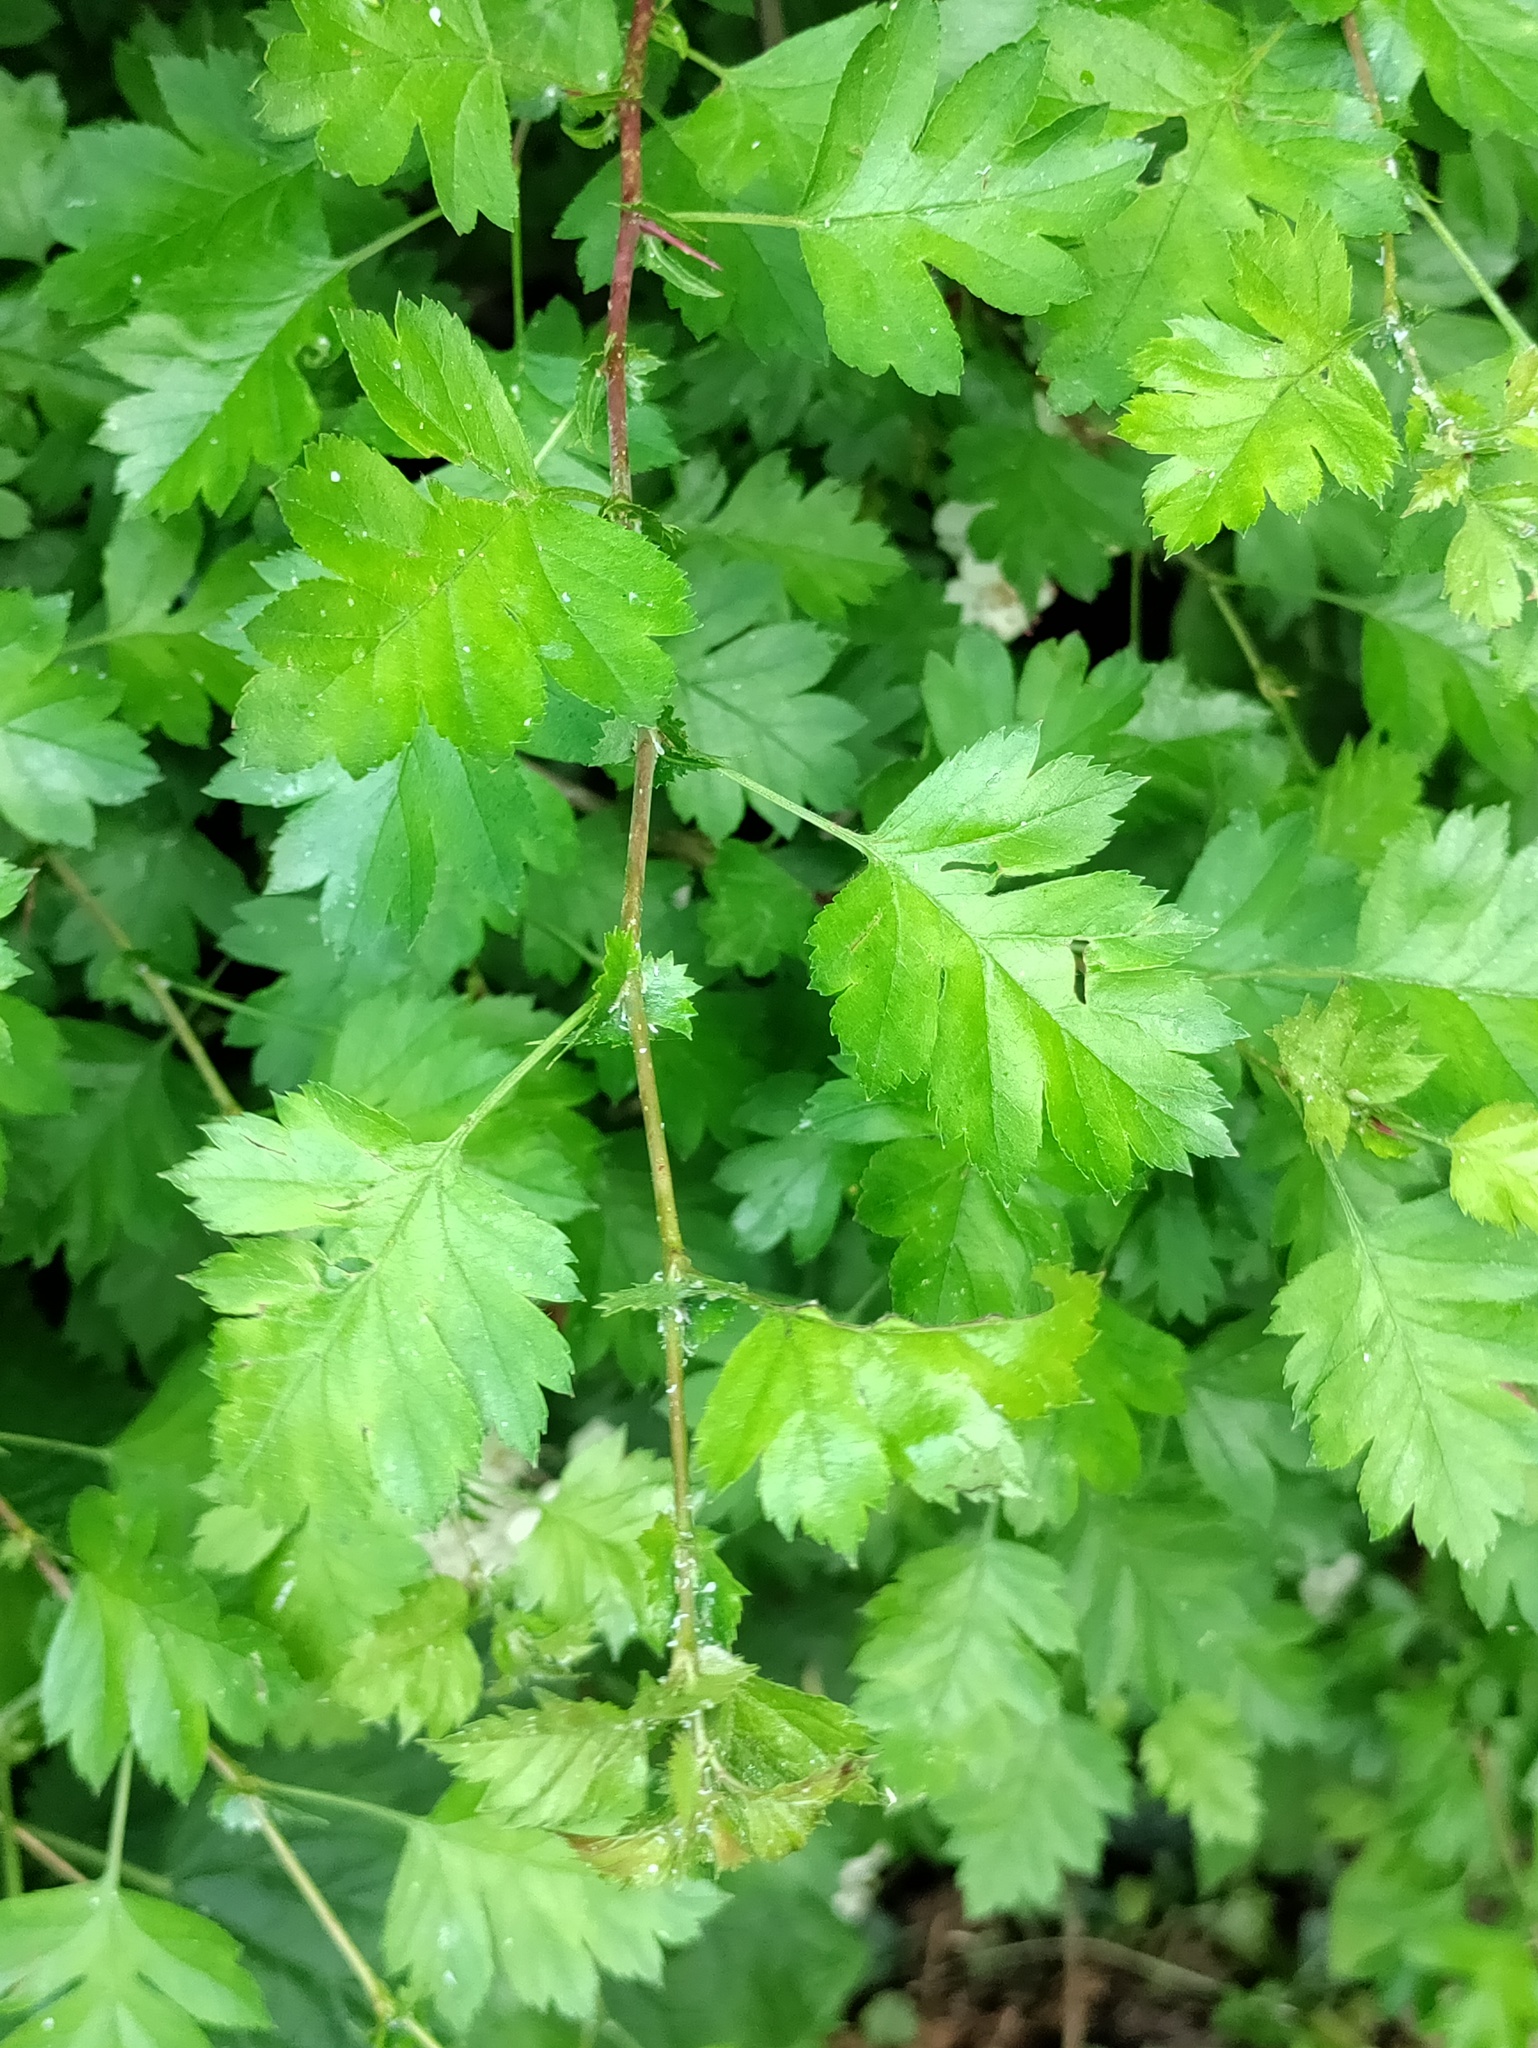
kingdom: Plantae
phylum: Tracheophyta
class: Magnoliopsida
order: Rosales
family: Rosaceae
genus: Crataegus
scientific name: Crataegus monogyna
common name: Hawthorn
